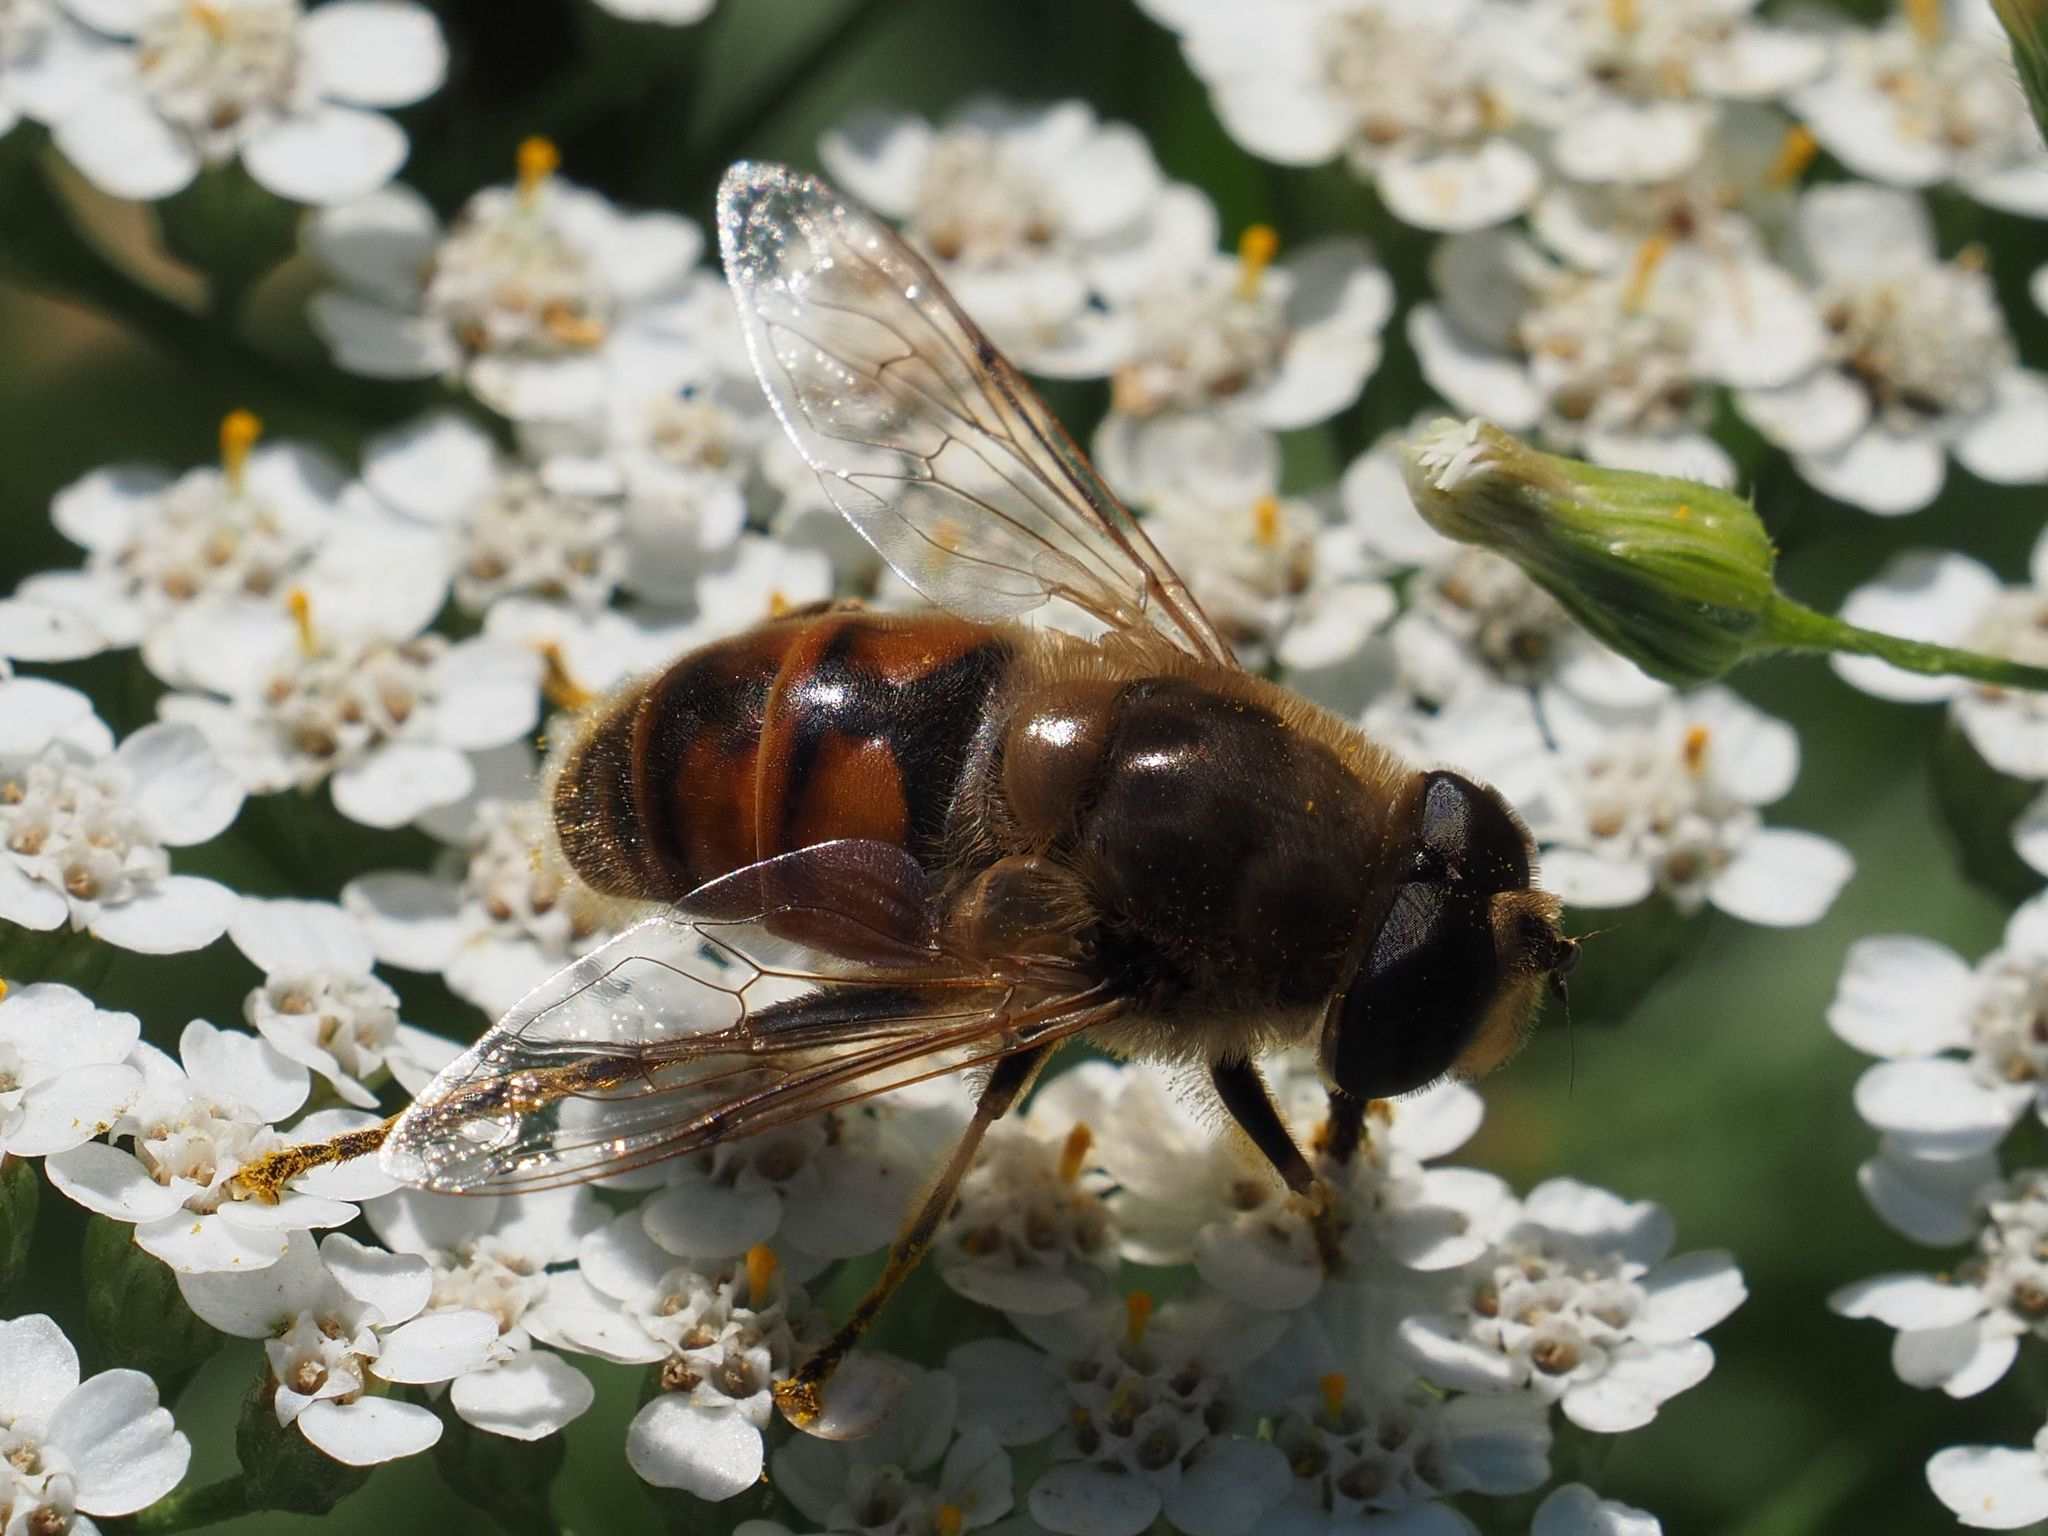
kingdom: Animalia
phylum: Arthropoda
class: Insecta
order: Diptera
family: Syrphidae
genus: Eristalis
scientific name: Eristalis tenax
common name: Drone fly
